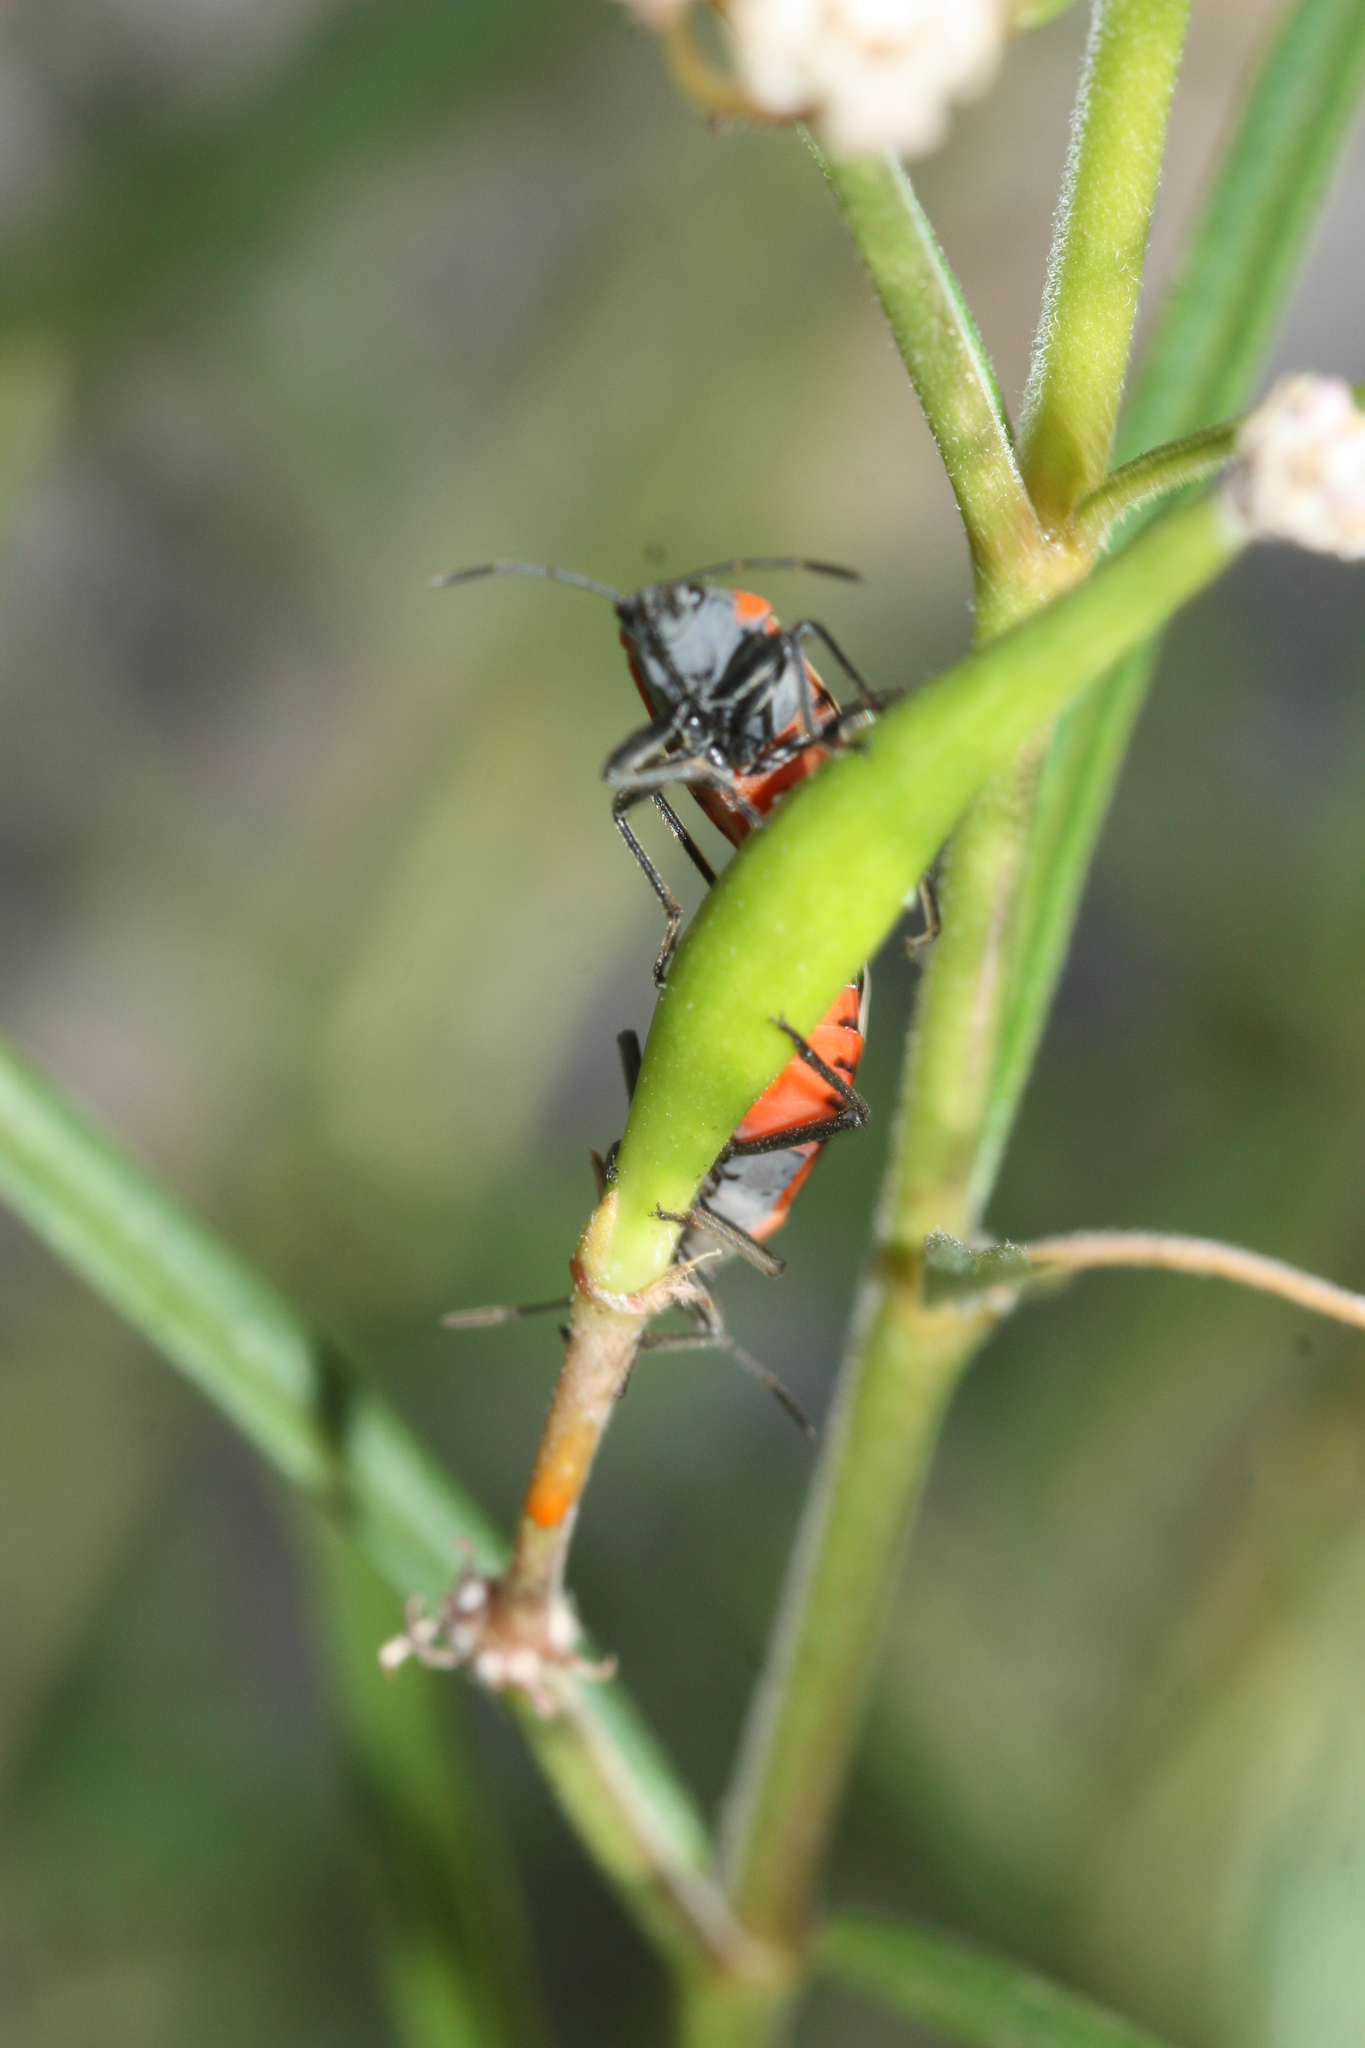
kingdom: Animalia
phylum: Arthropoda
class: Insecta
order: Hemiptera
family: Lygaeidae
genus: Lygaeus
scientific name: Lygaeus kalmii
